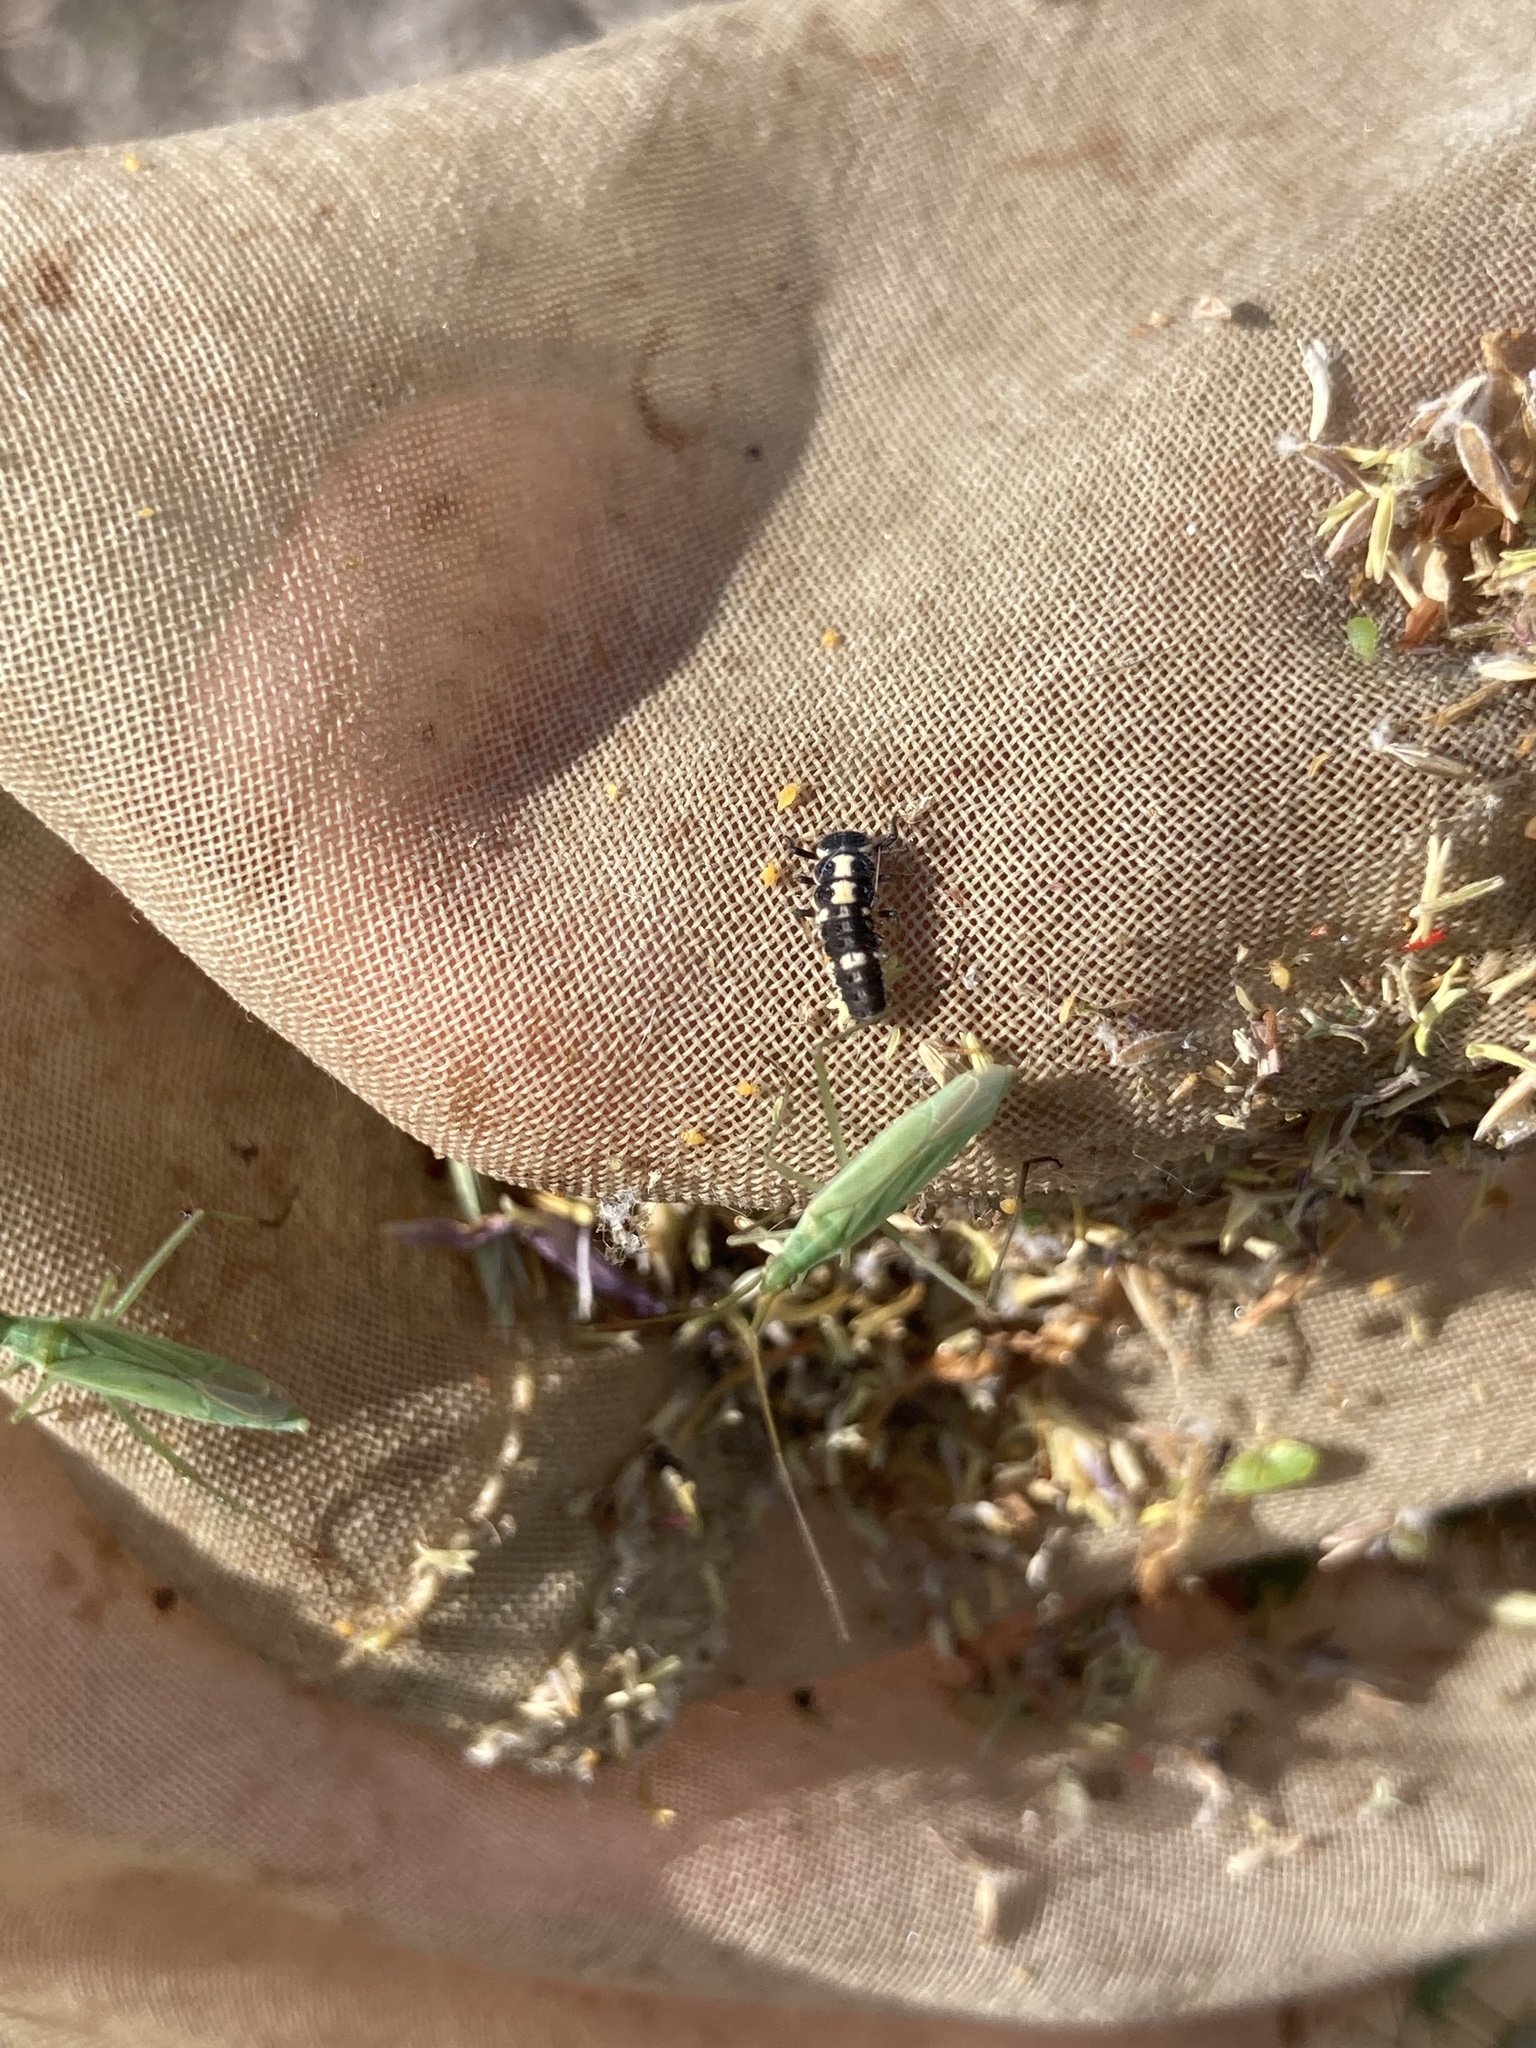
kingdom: Animalia
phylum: Arthropoda
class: Insecta
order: Coleoptera
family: Coccinellidae
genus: Propylaea
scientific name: Propylaea quatuordecimpunctata
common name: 14-spotted ladybird beetle
